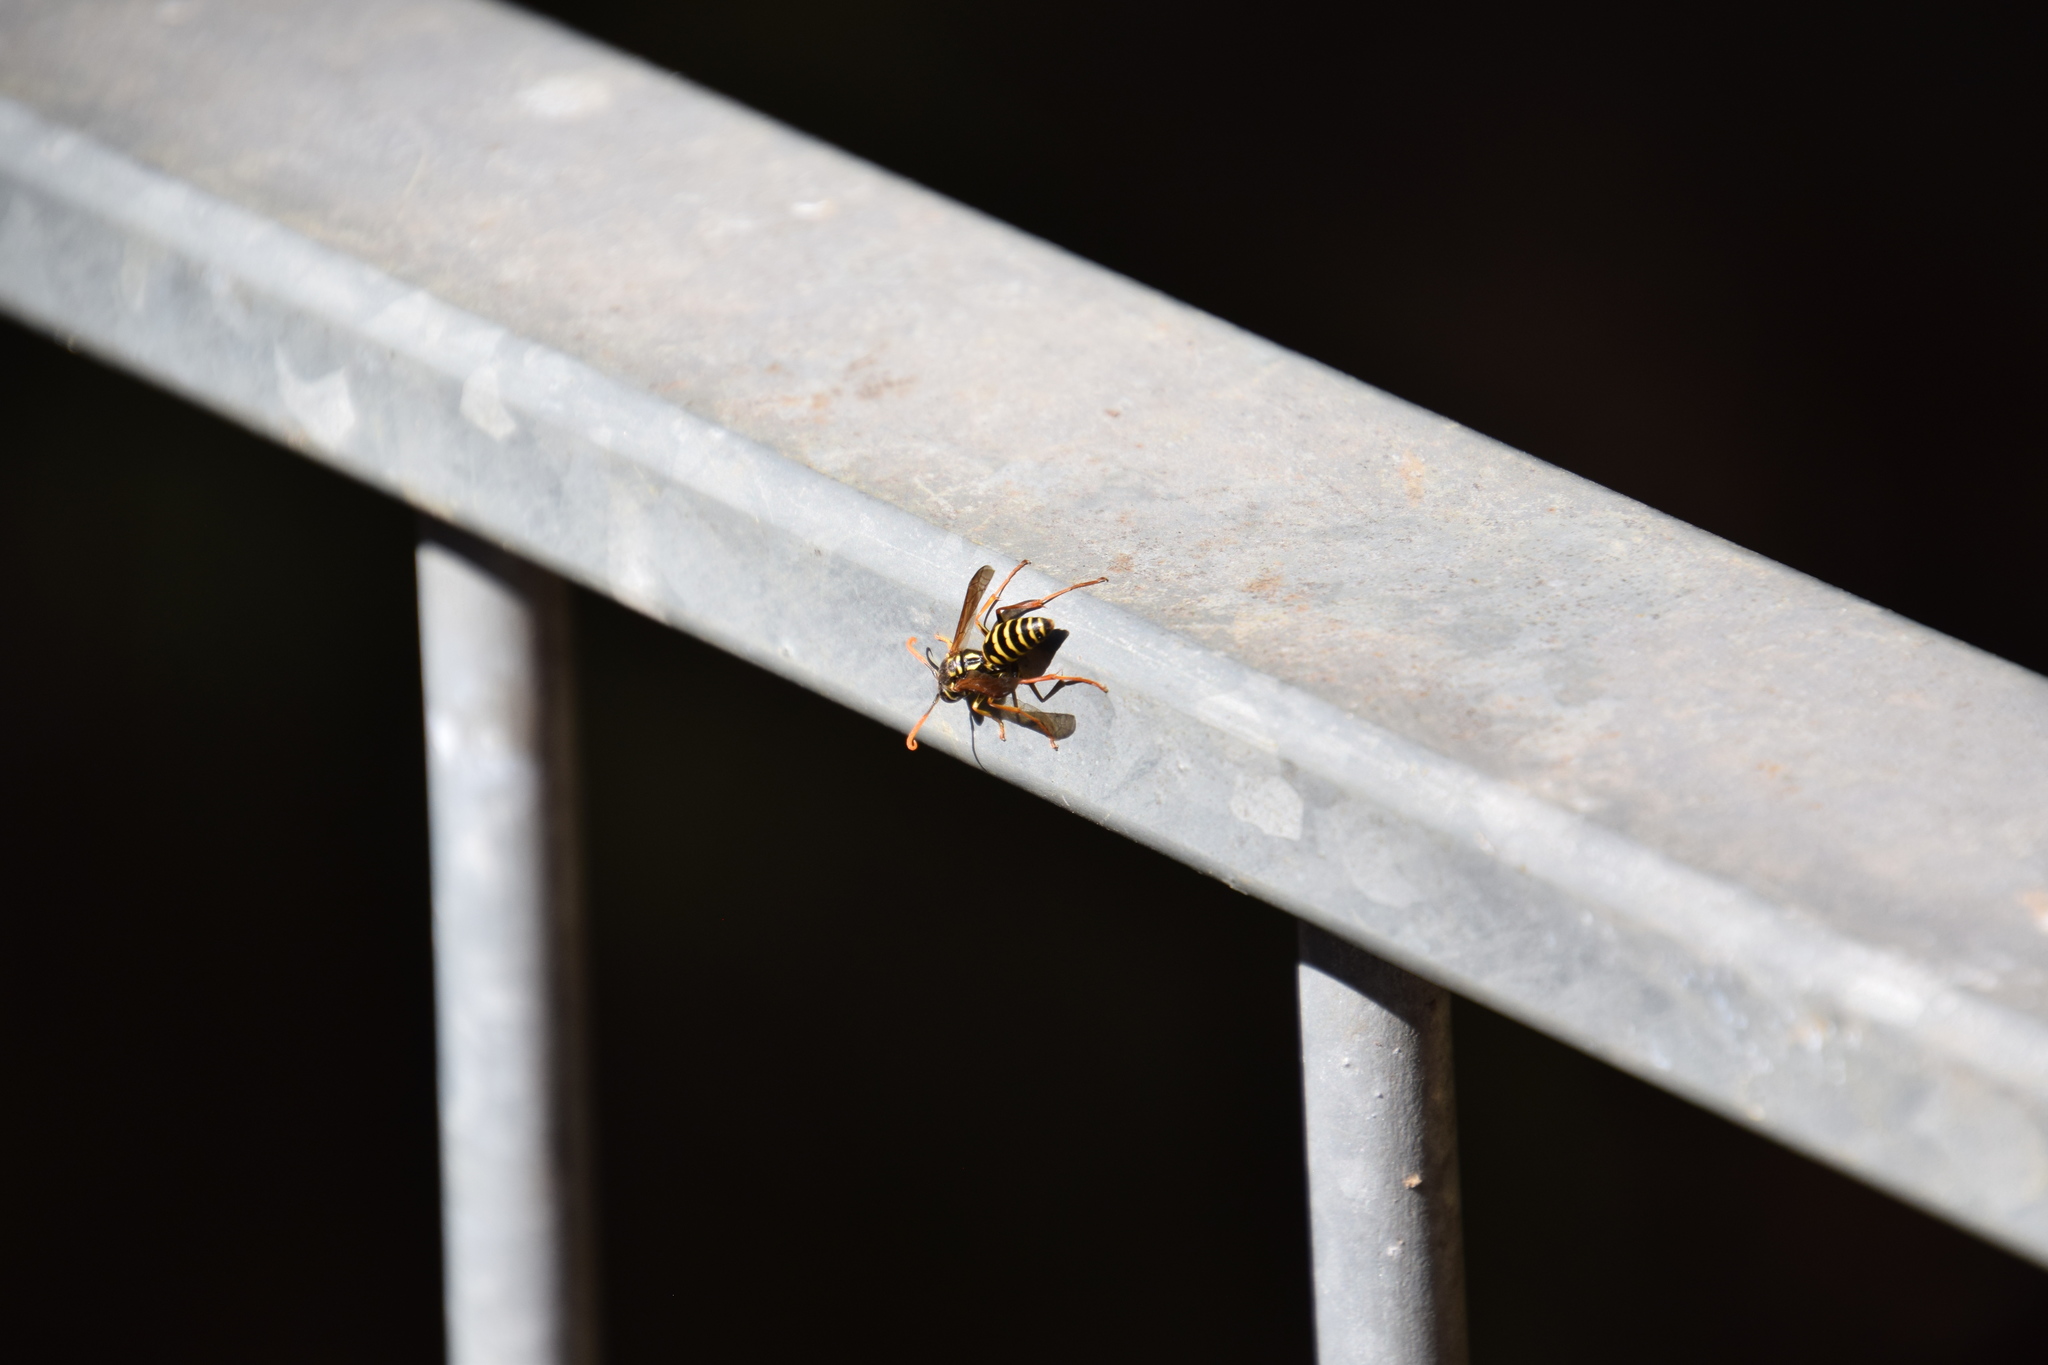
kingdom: Animalia
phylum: Arthropoda
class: Insecta
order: Hymenoptera
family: Eumenidae
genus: Polistes
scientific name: Polistes chinensis
